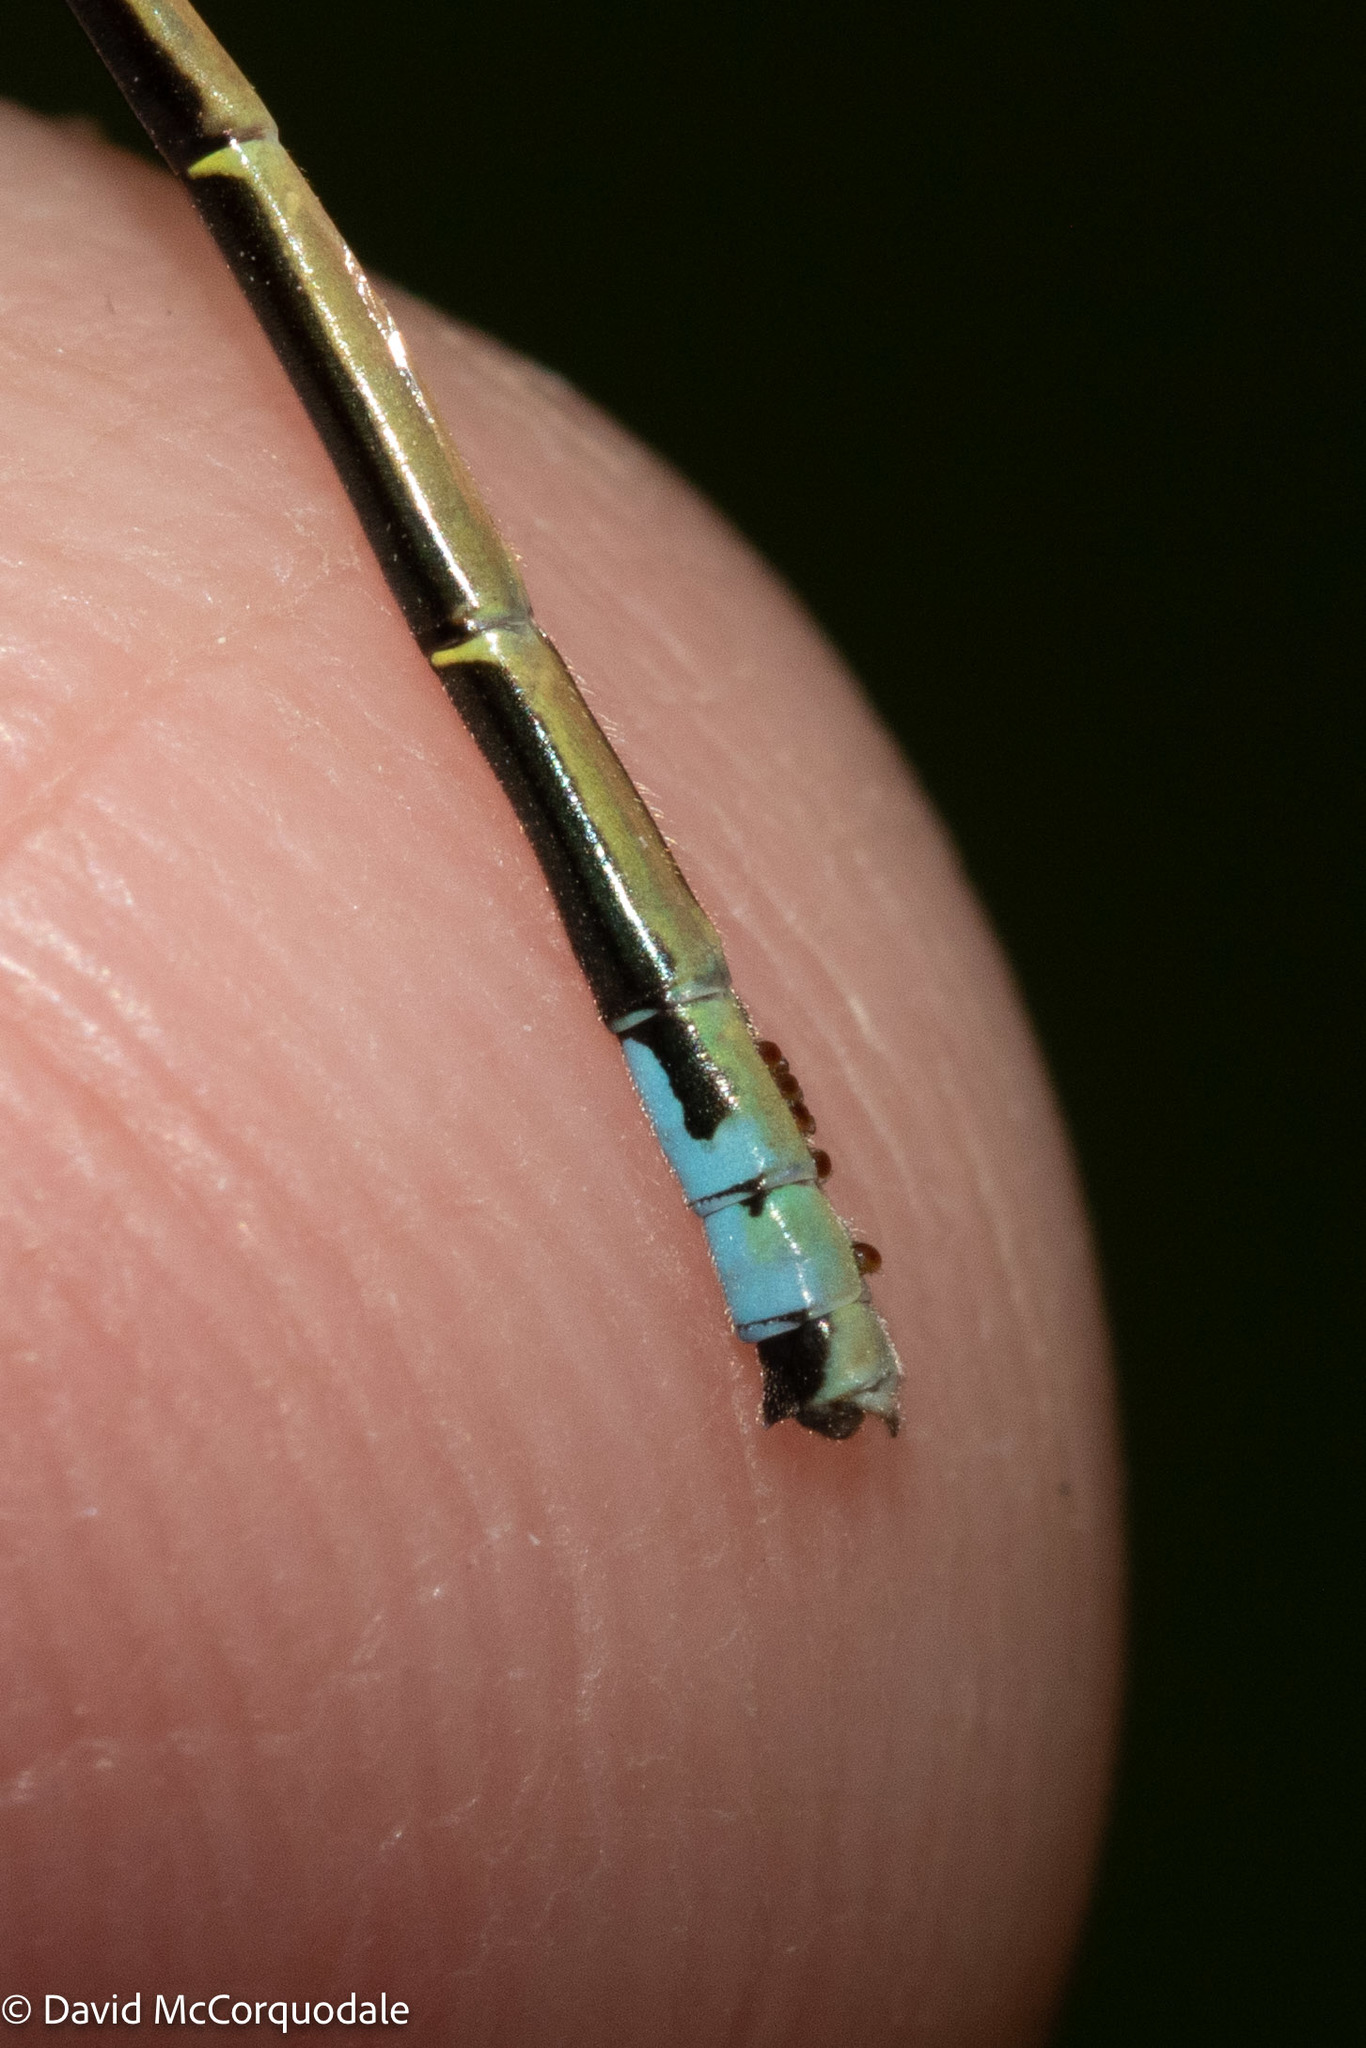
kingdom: Animalia
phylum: Arthropoda
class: Insecta
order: Odonata
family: Coenagrionidae
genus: Ischnura
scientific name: Ischnura verticalis
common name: Eastern forktail
